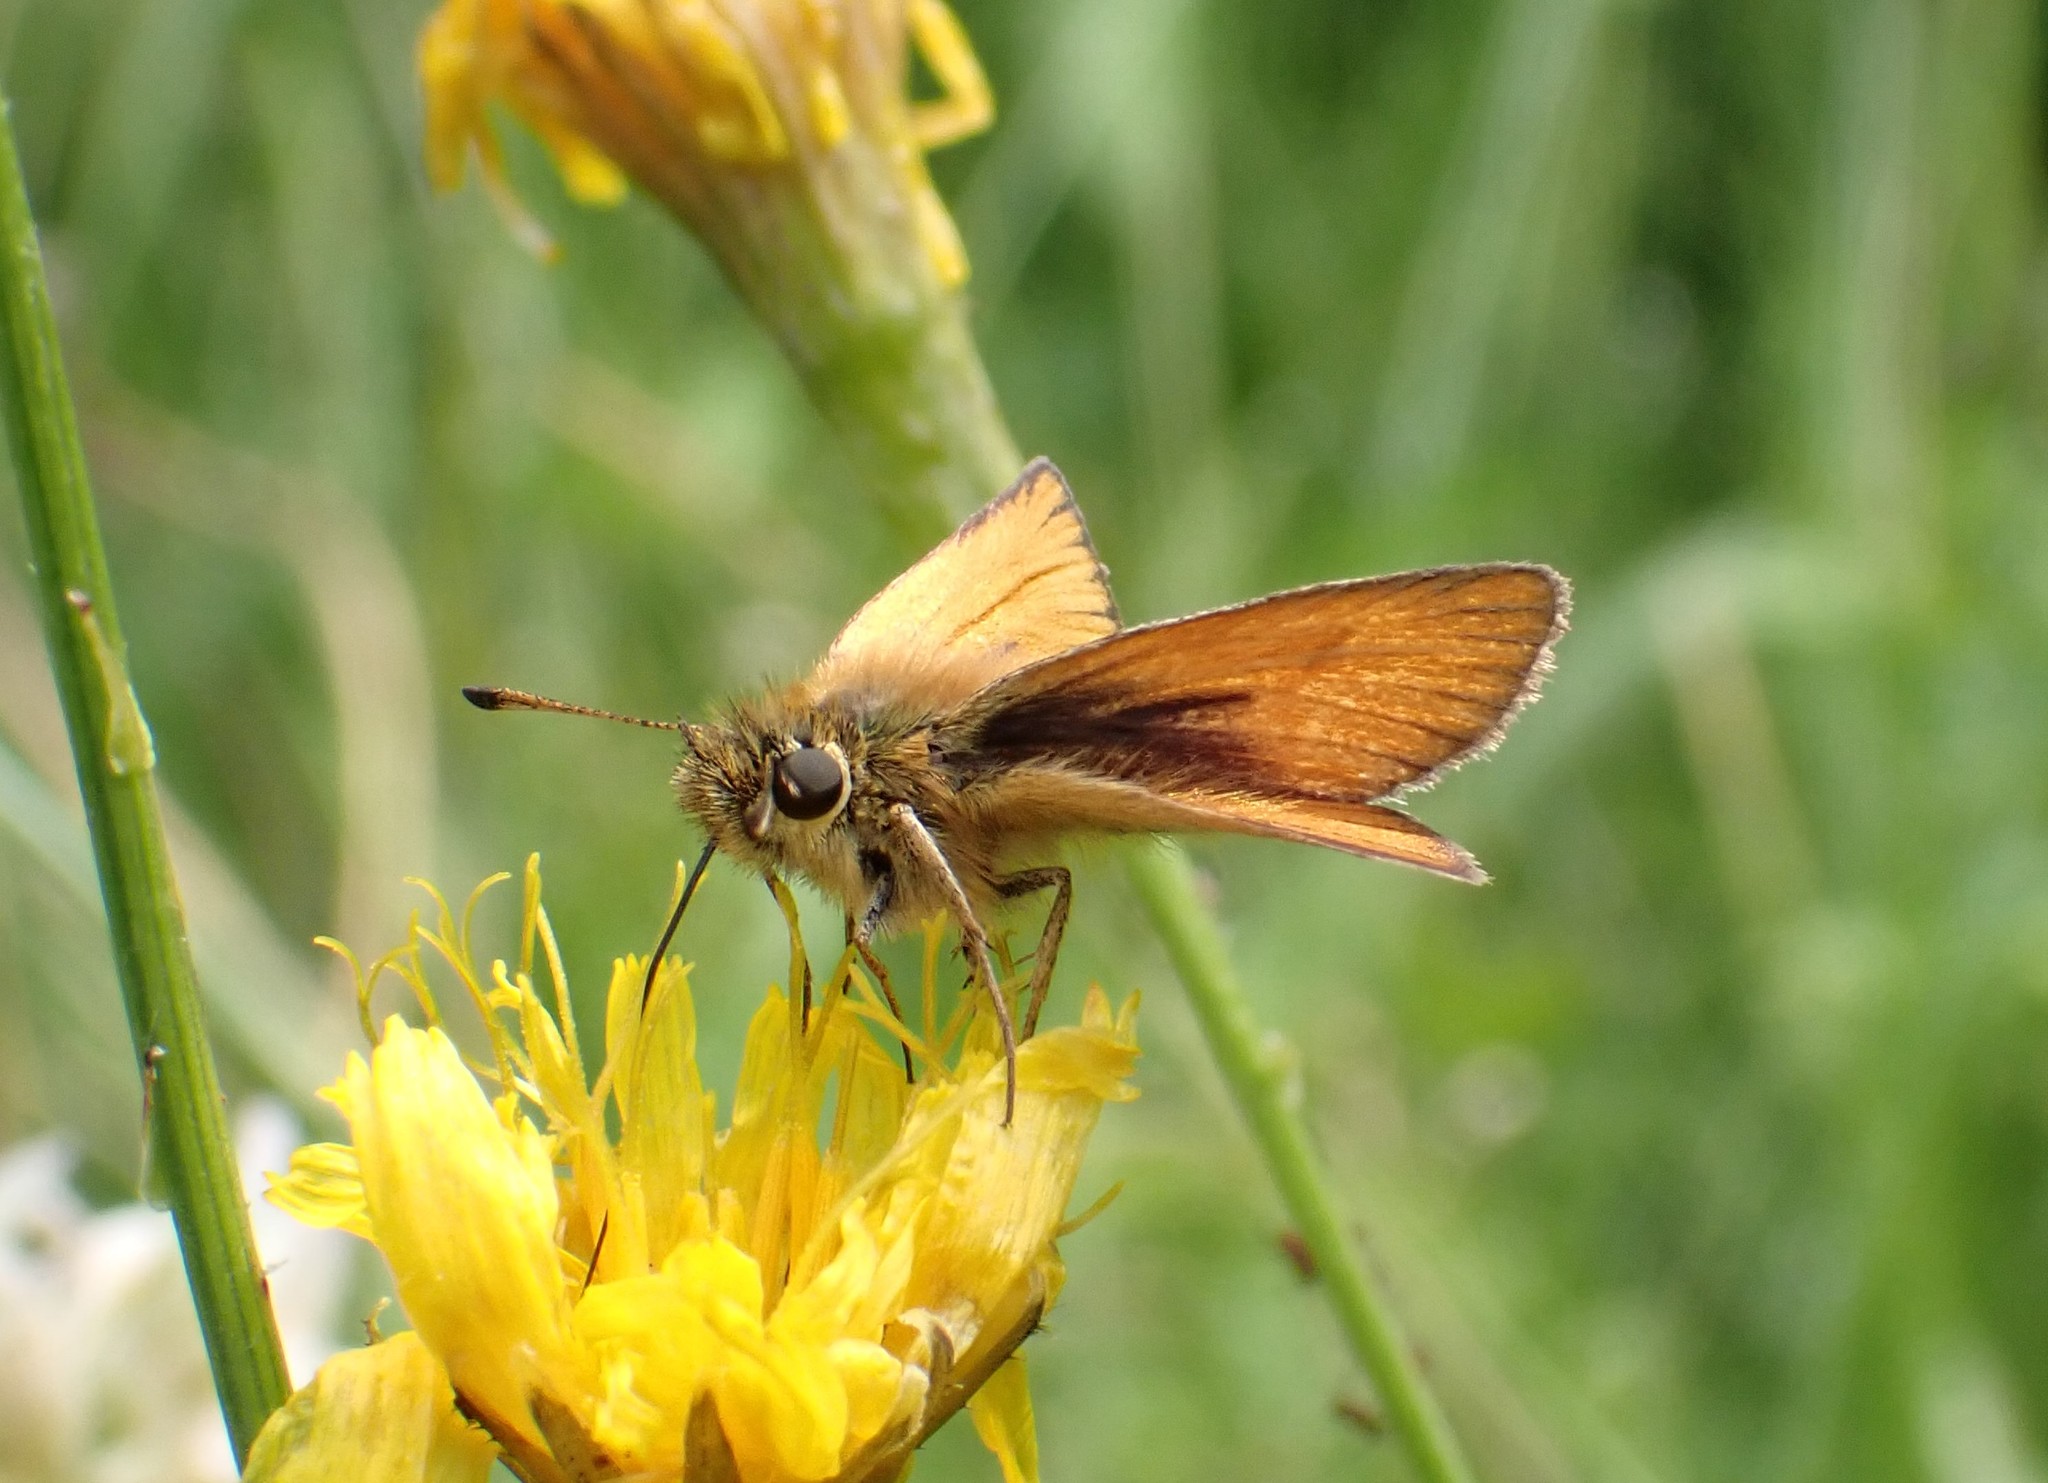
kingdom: Animalia
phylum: Arthropoda
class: Insecta
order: Lepidoptera
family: Hesperiidae
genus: Thymelicus
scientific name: Thymelicus lineola
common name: Essex skipper
